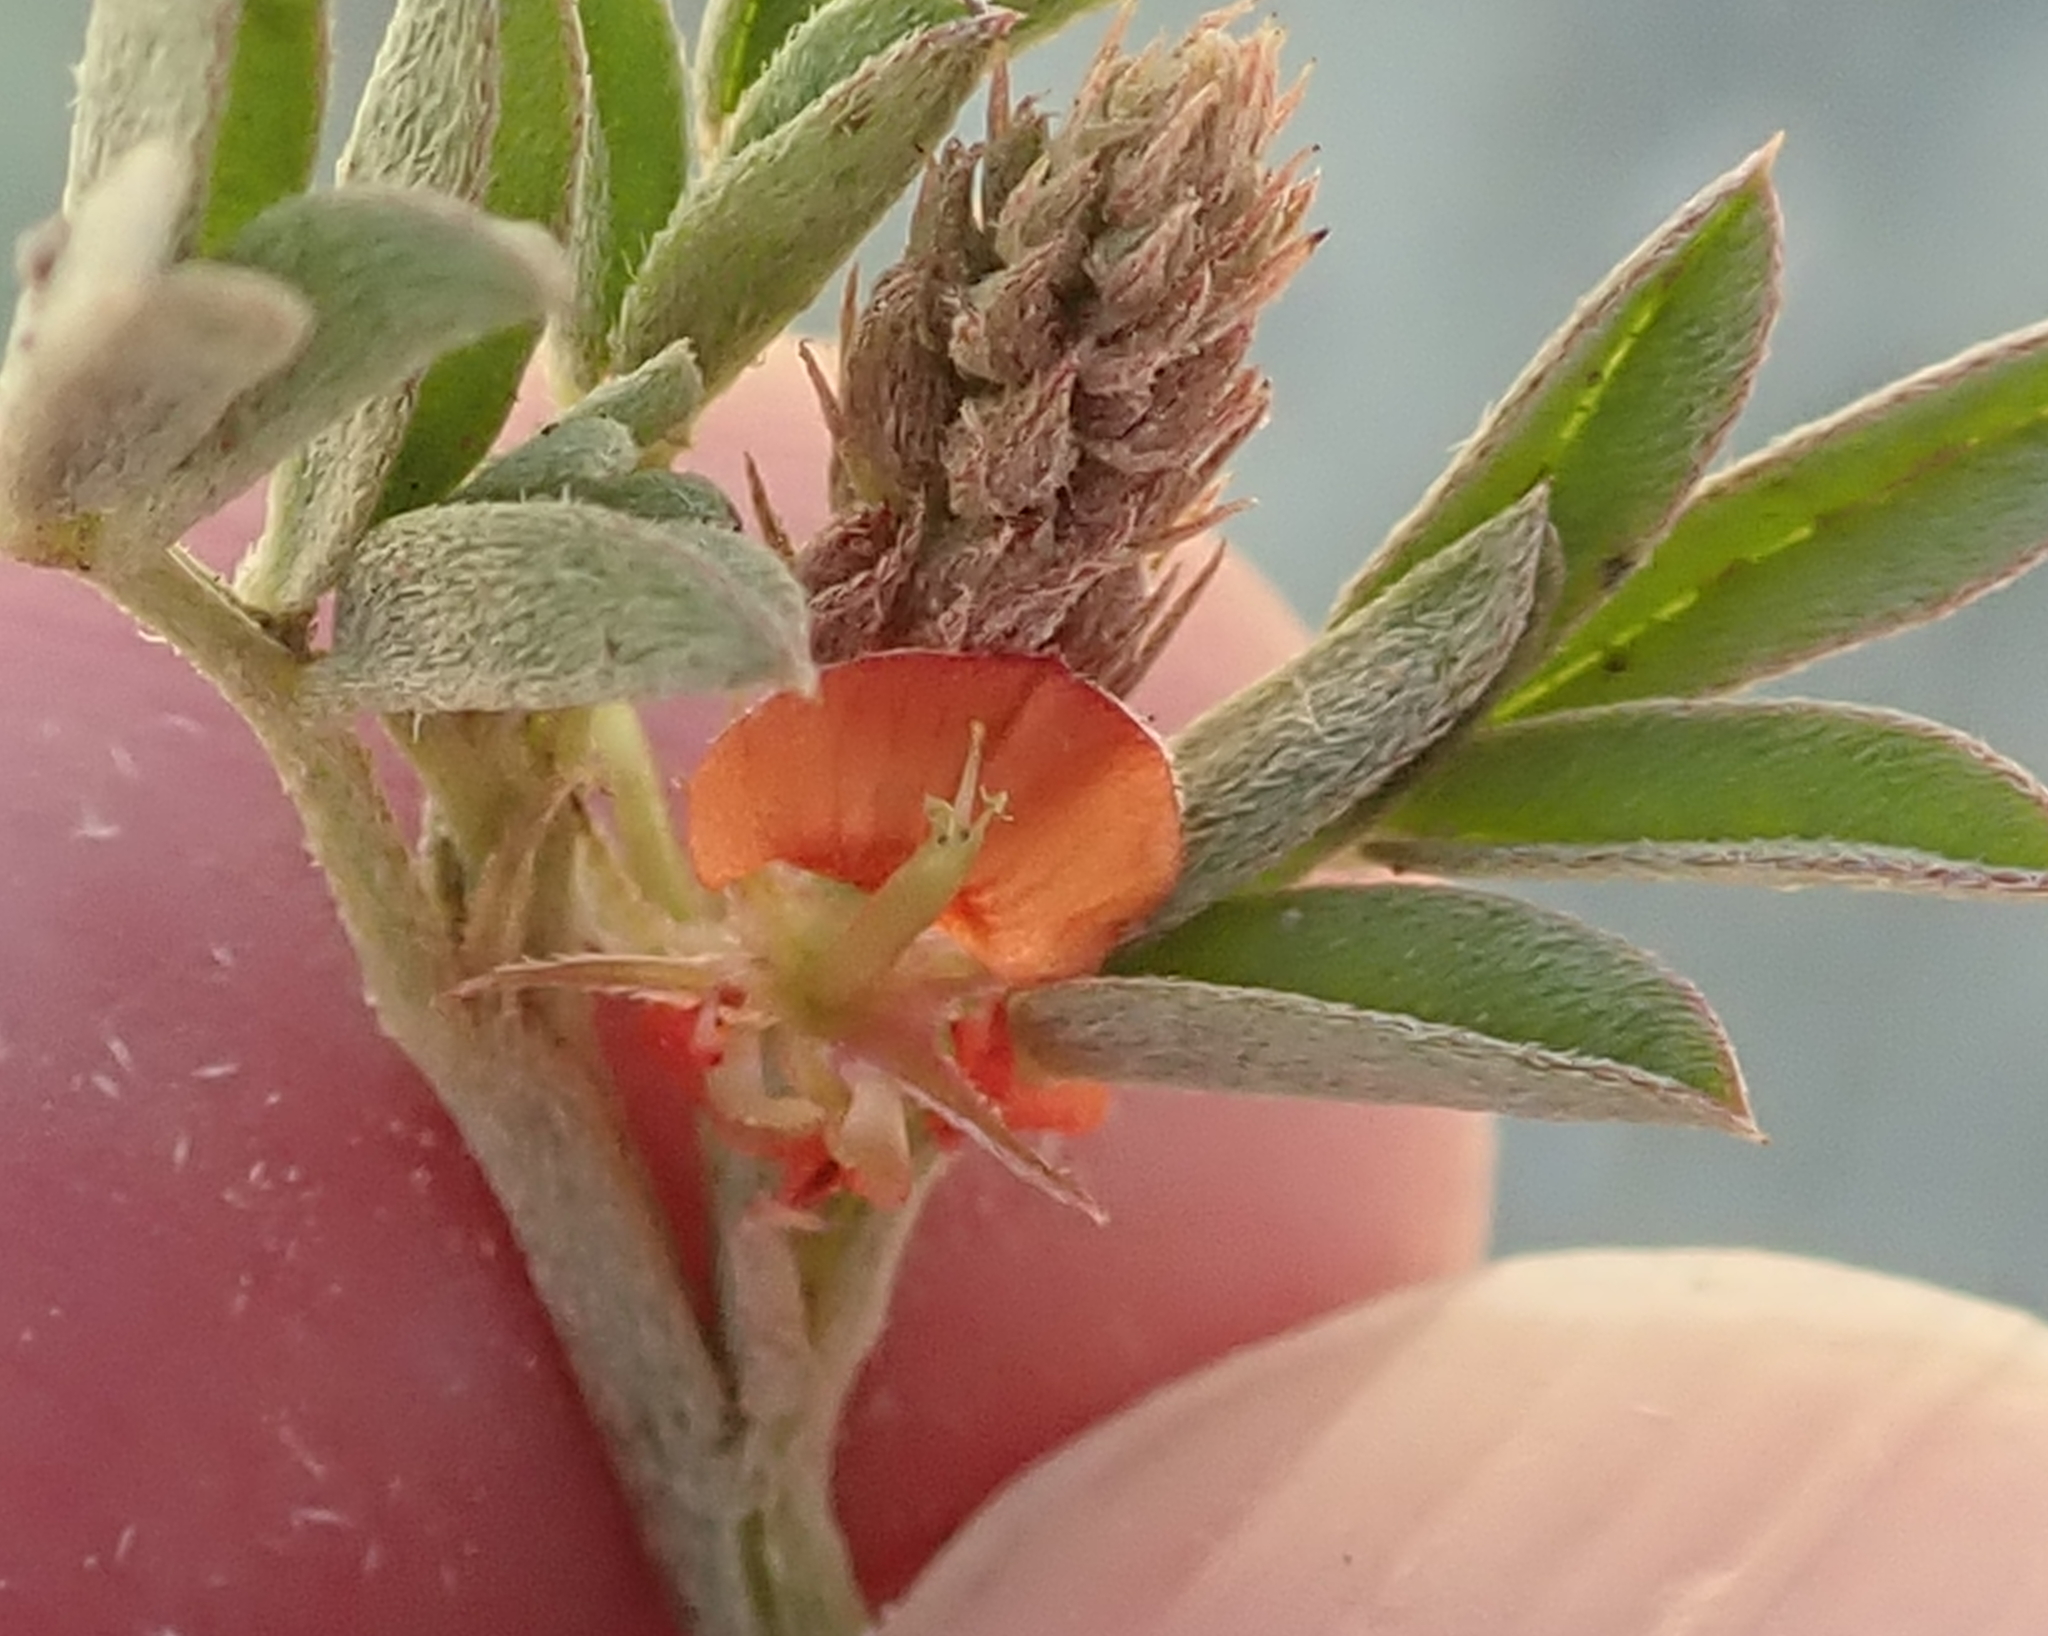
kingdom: Plantae
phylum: Tracheophyta
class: Magnoliopsida
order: Fabales
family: Fabaceae
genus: Indigofera
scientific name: Indigofera torulosa
